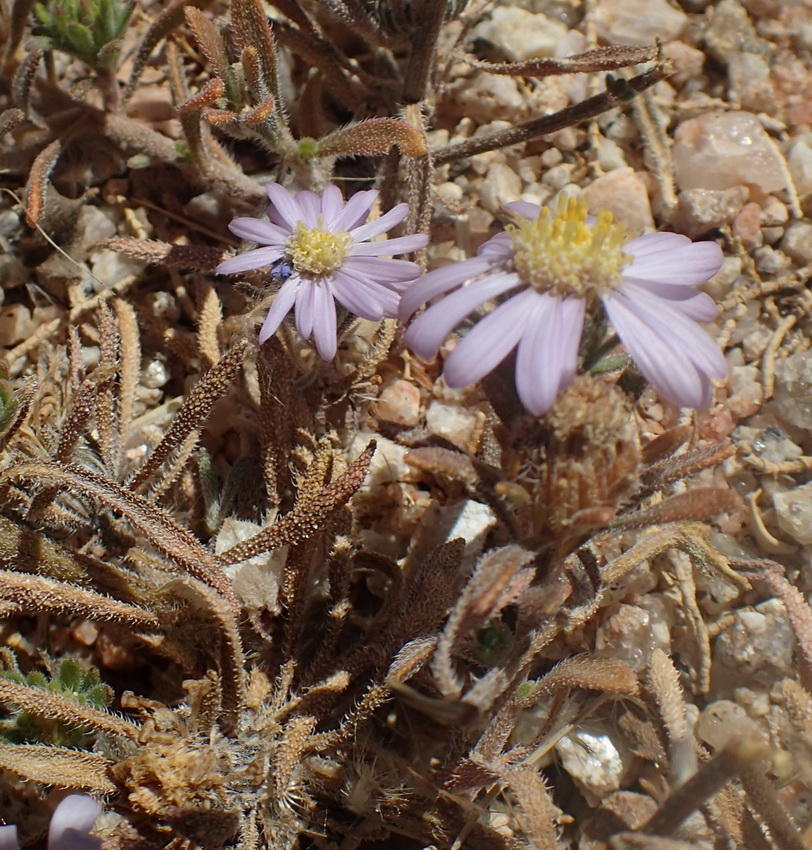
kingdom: Plantae
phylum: Tracheophyta
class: Magnoliopsida
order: Asterales
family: Asteraceae
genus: Amellus
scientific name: Amellus nanus
